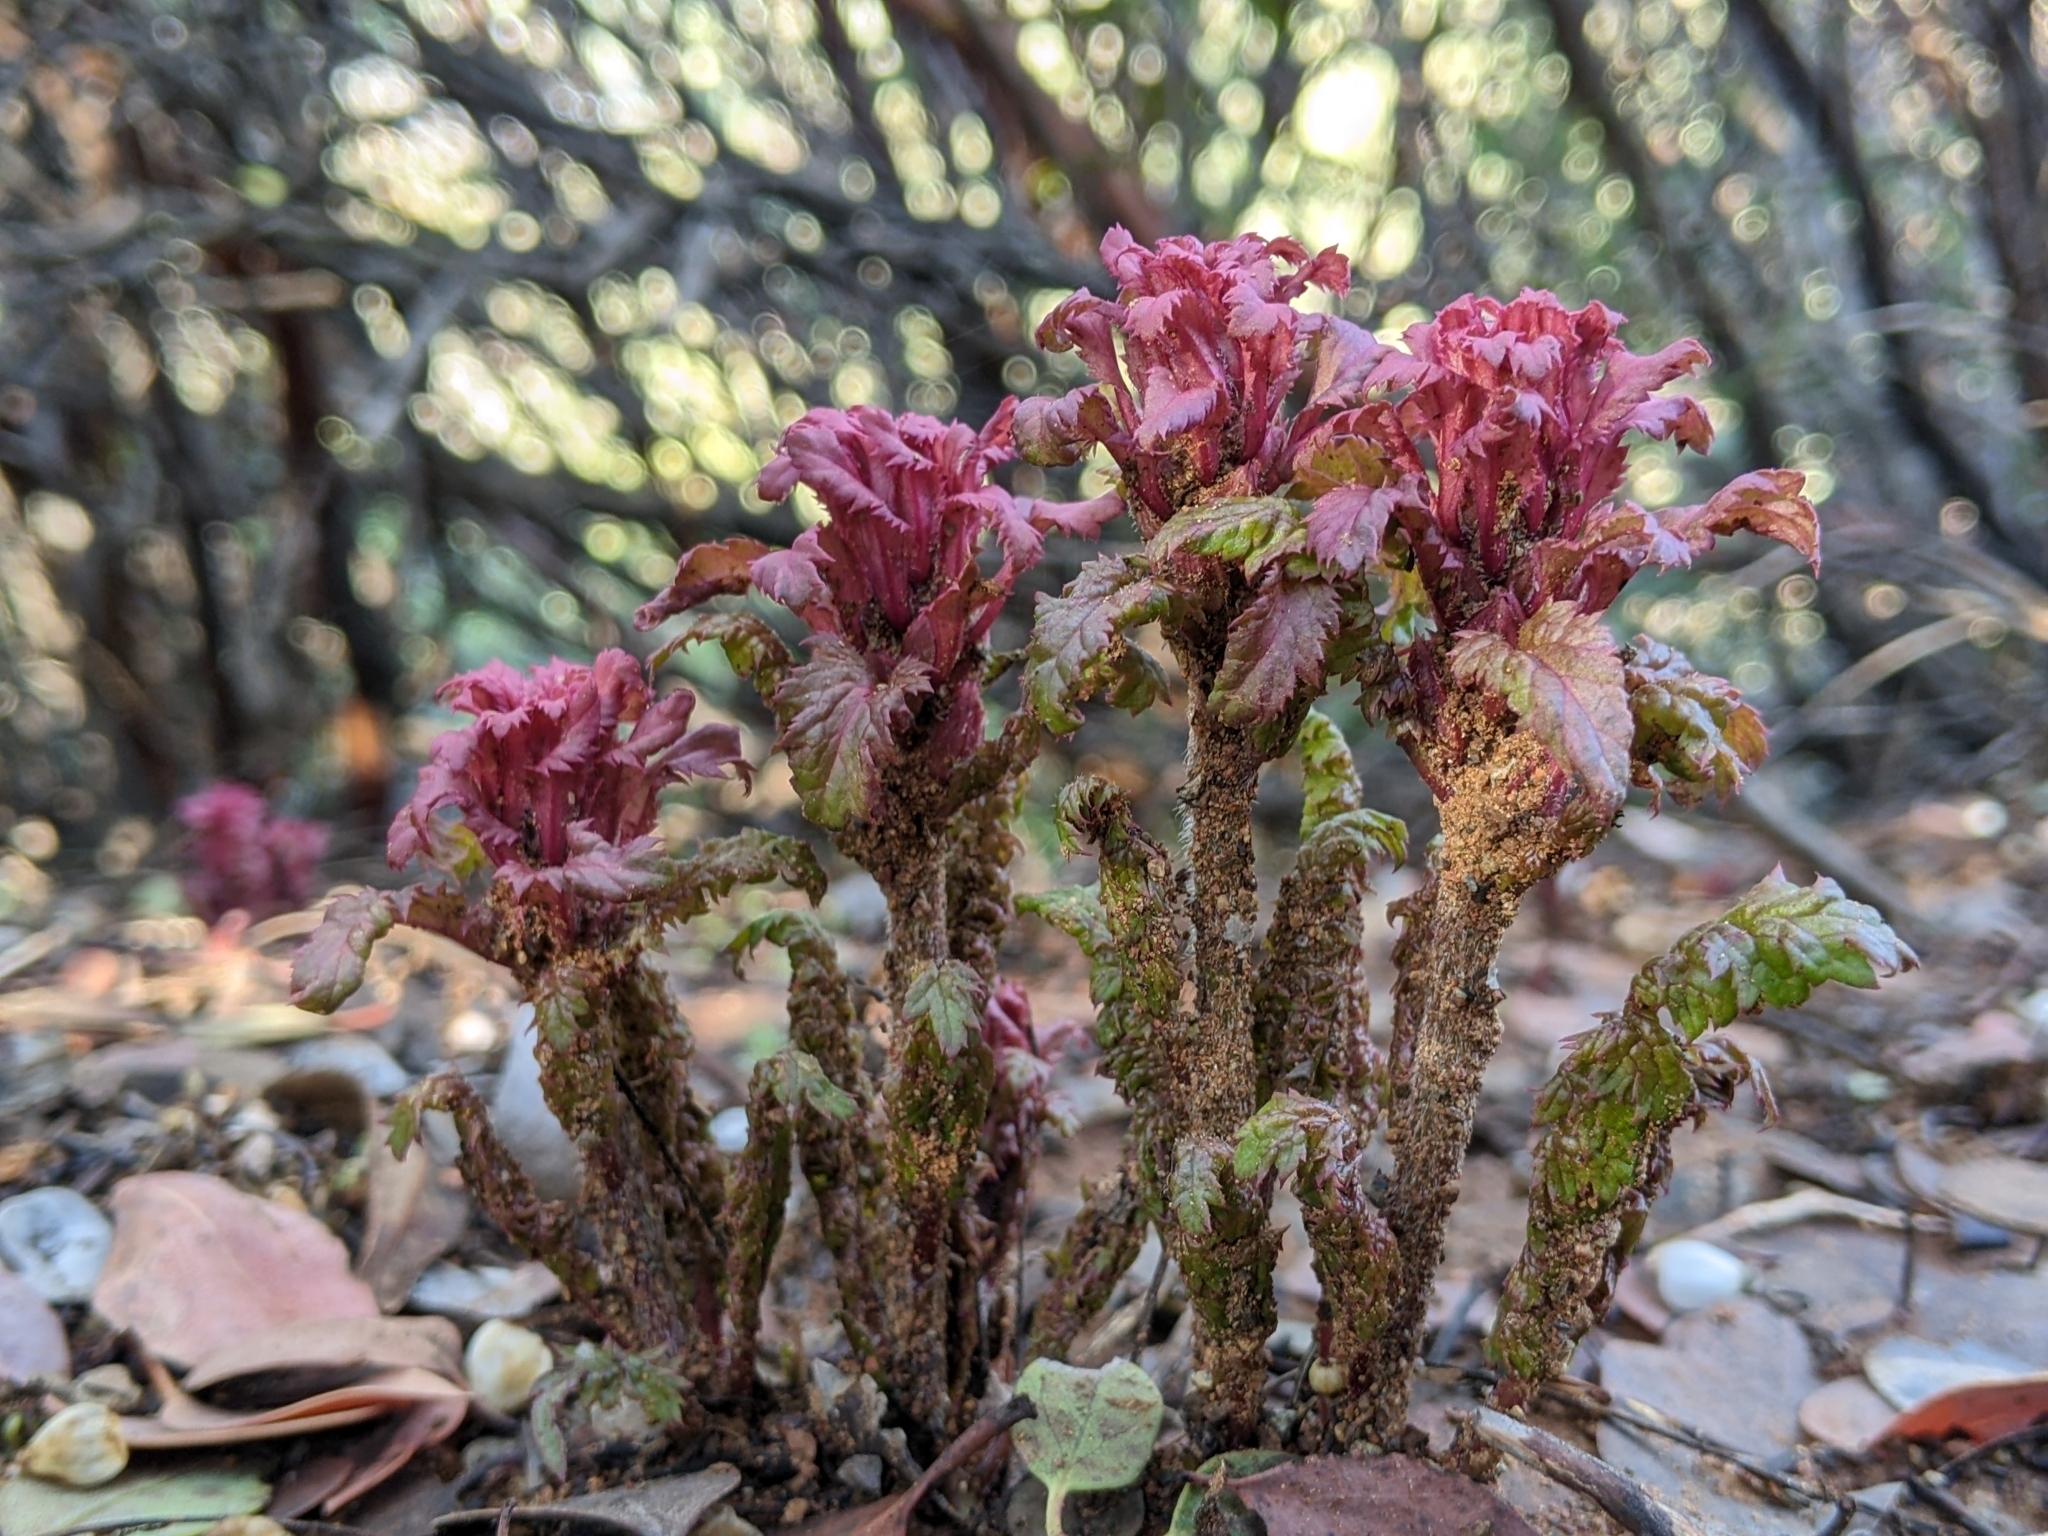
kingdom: Plantae
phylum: Tracheophyta
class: Magnoliopsida
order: Lamiales
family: Orobanchaceae
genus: Pedicularis
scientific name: Pedicularis densiflora
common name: Indian warrior
